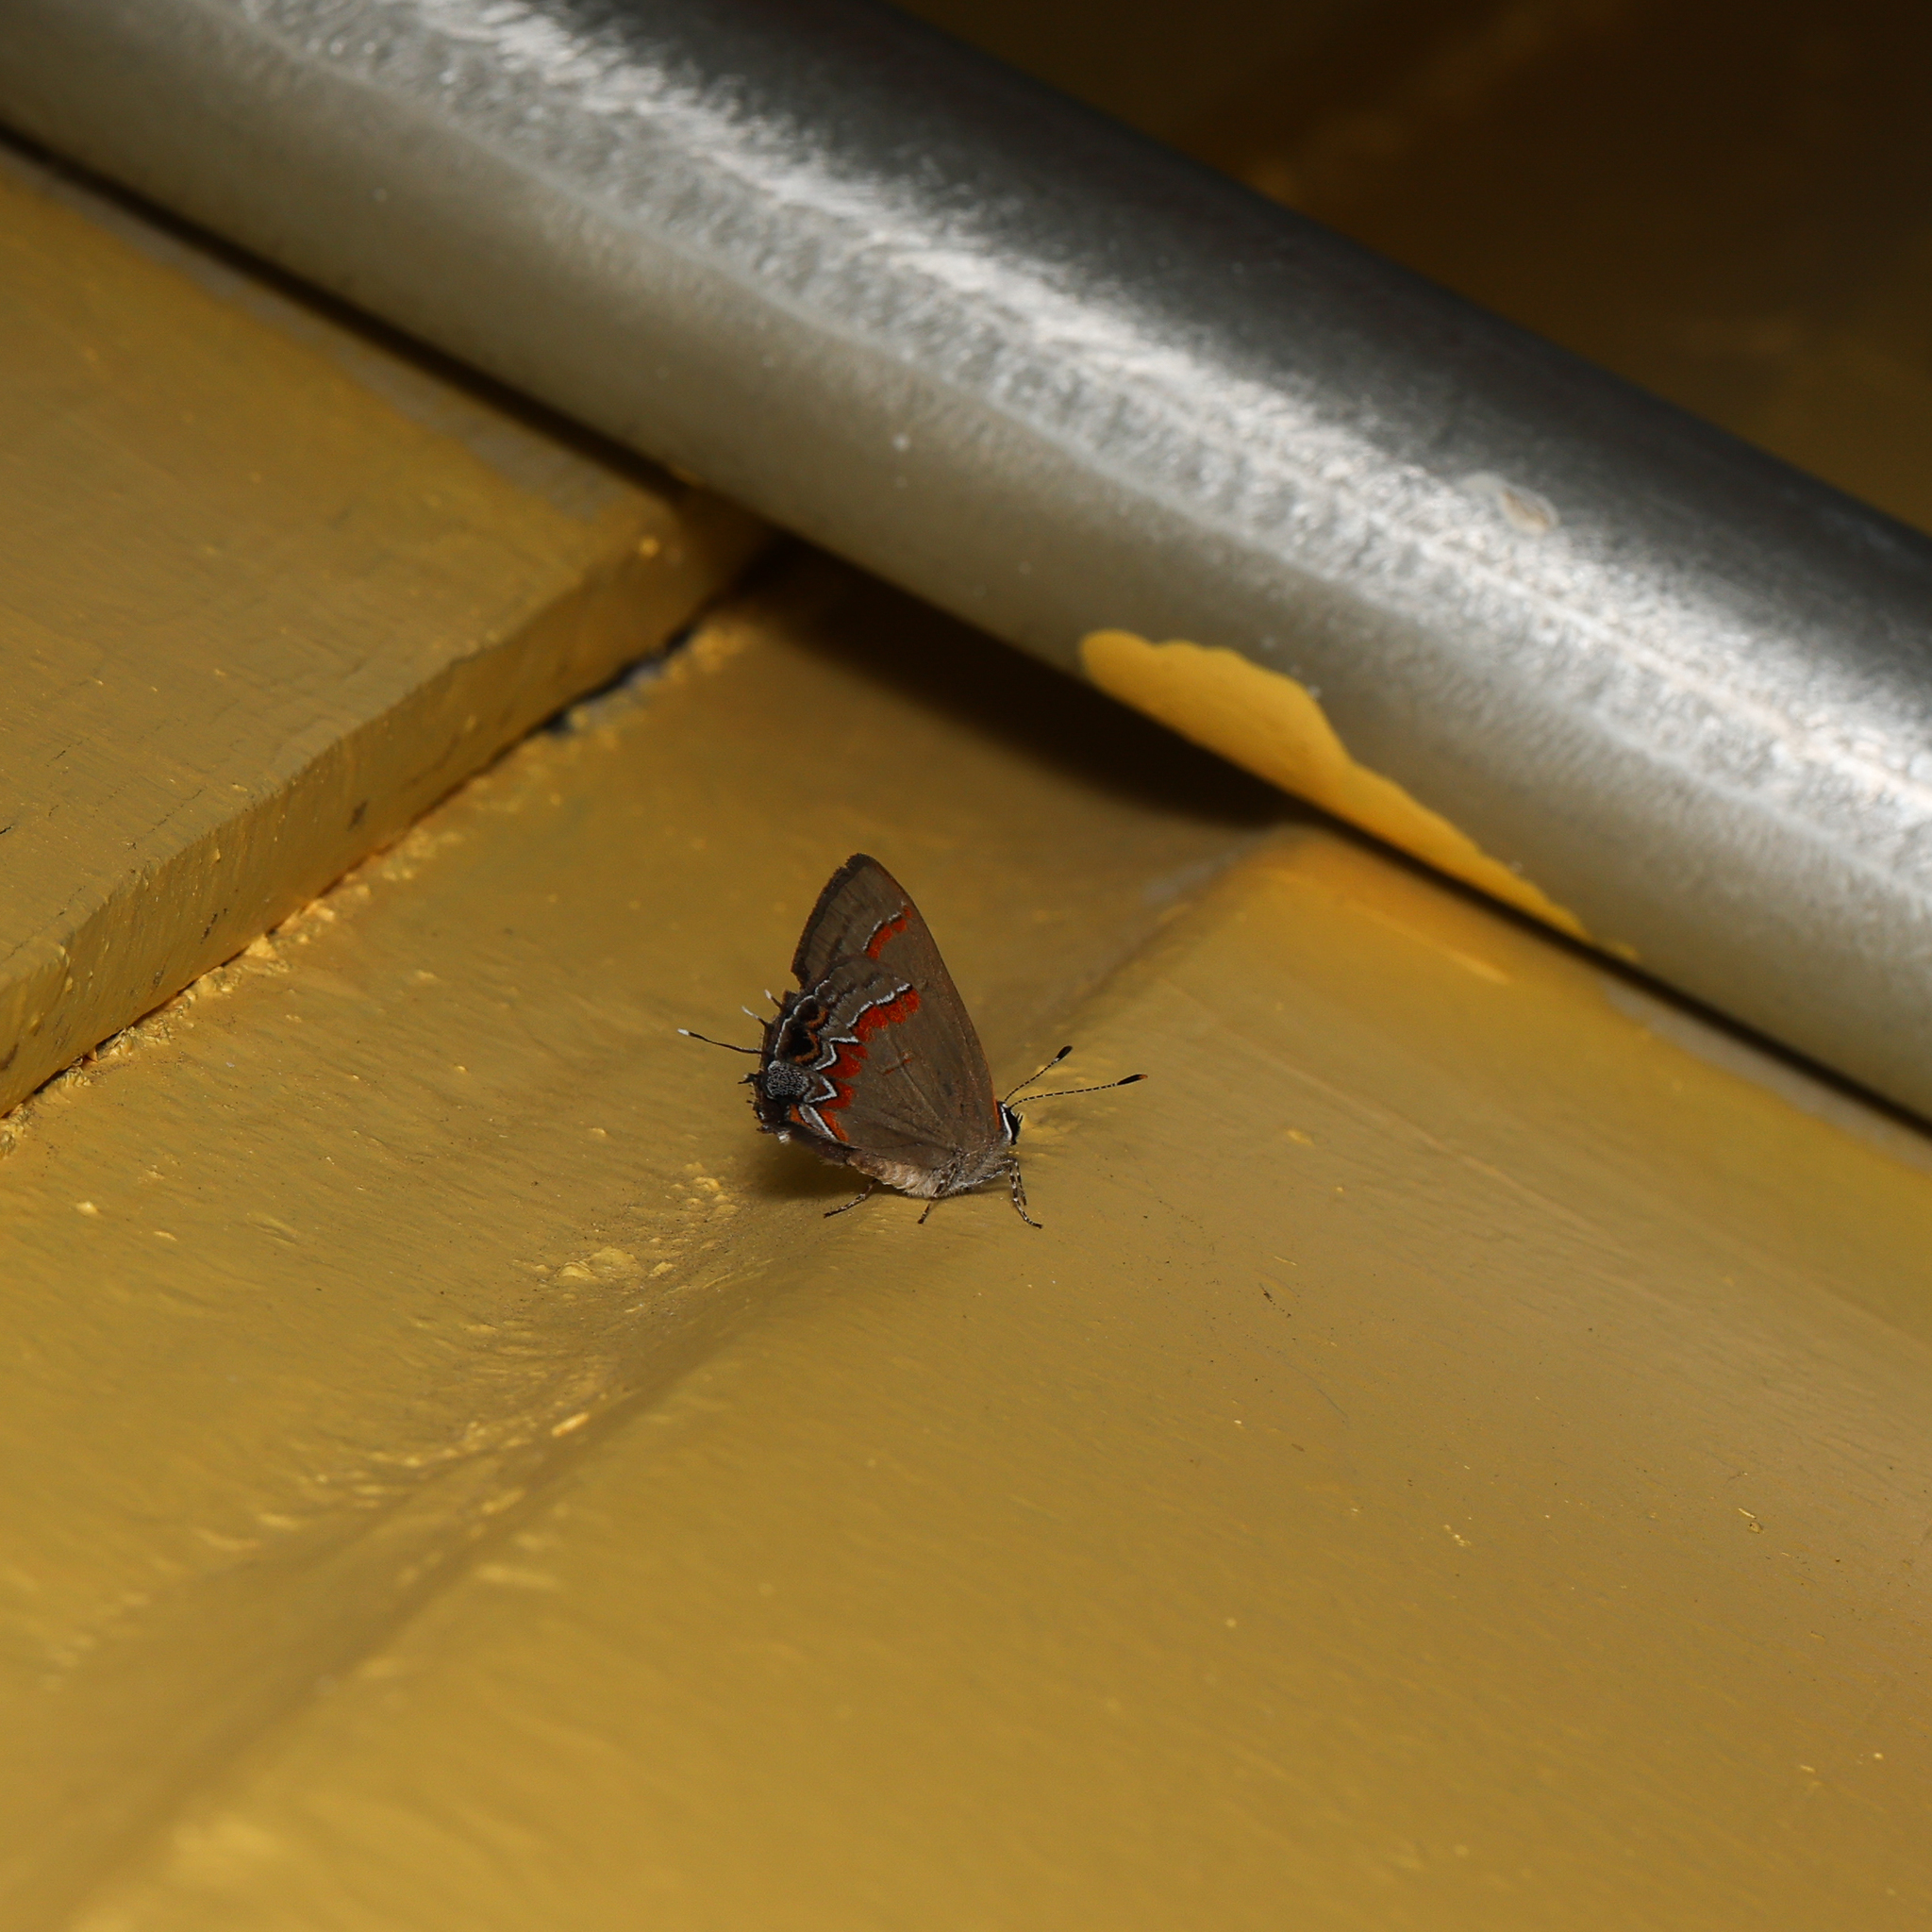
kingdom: Animalia
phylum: Arthropoda
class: Insecta
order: Lepidoptera
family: Lycaenidae
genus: Calycopis
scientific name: Calycopis cecrops
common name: Red-banded hairstreak
